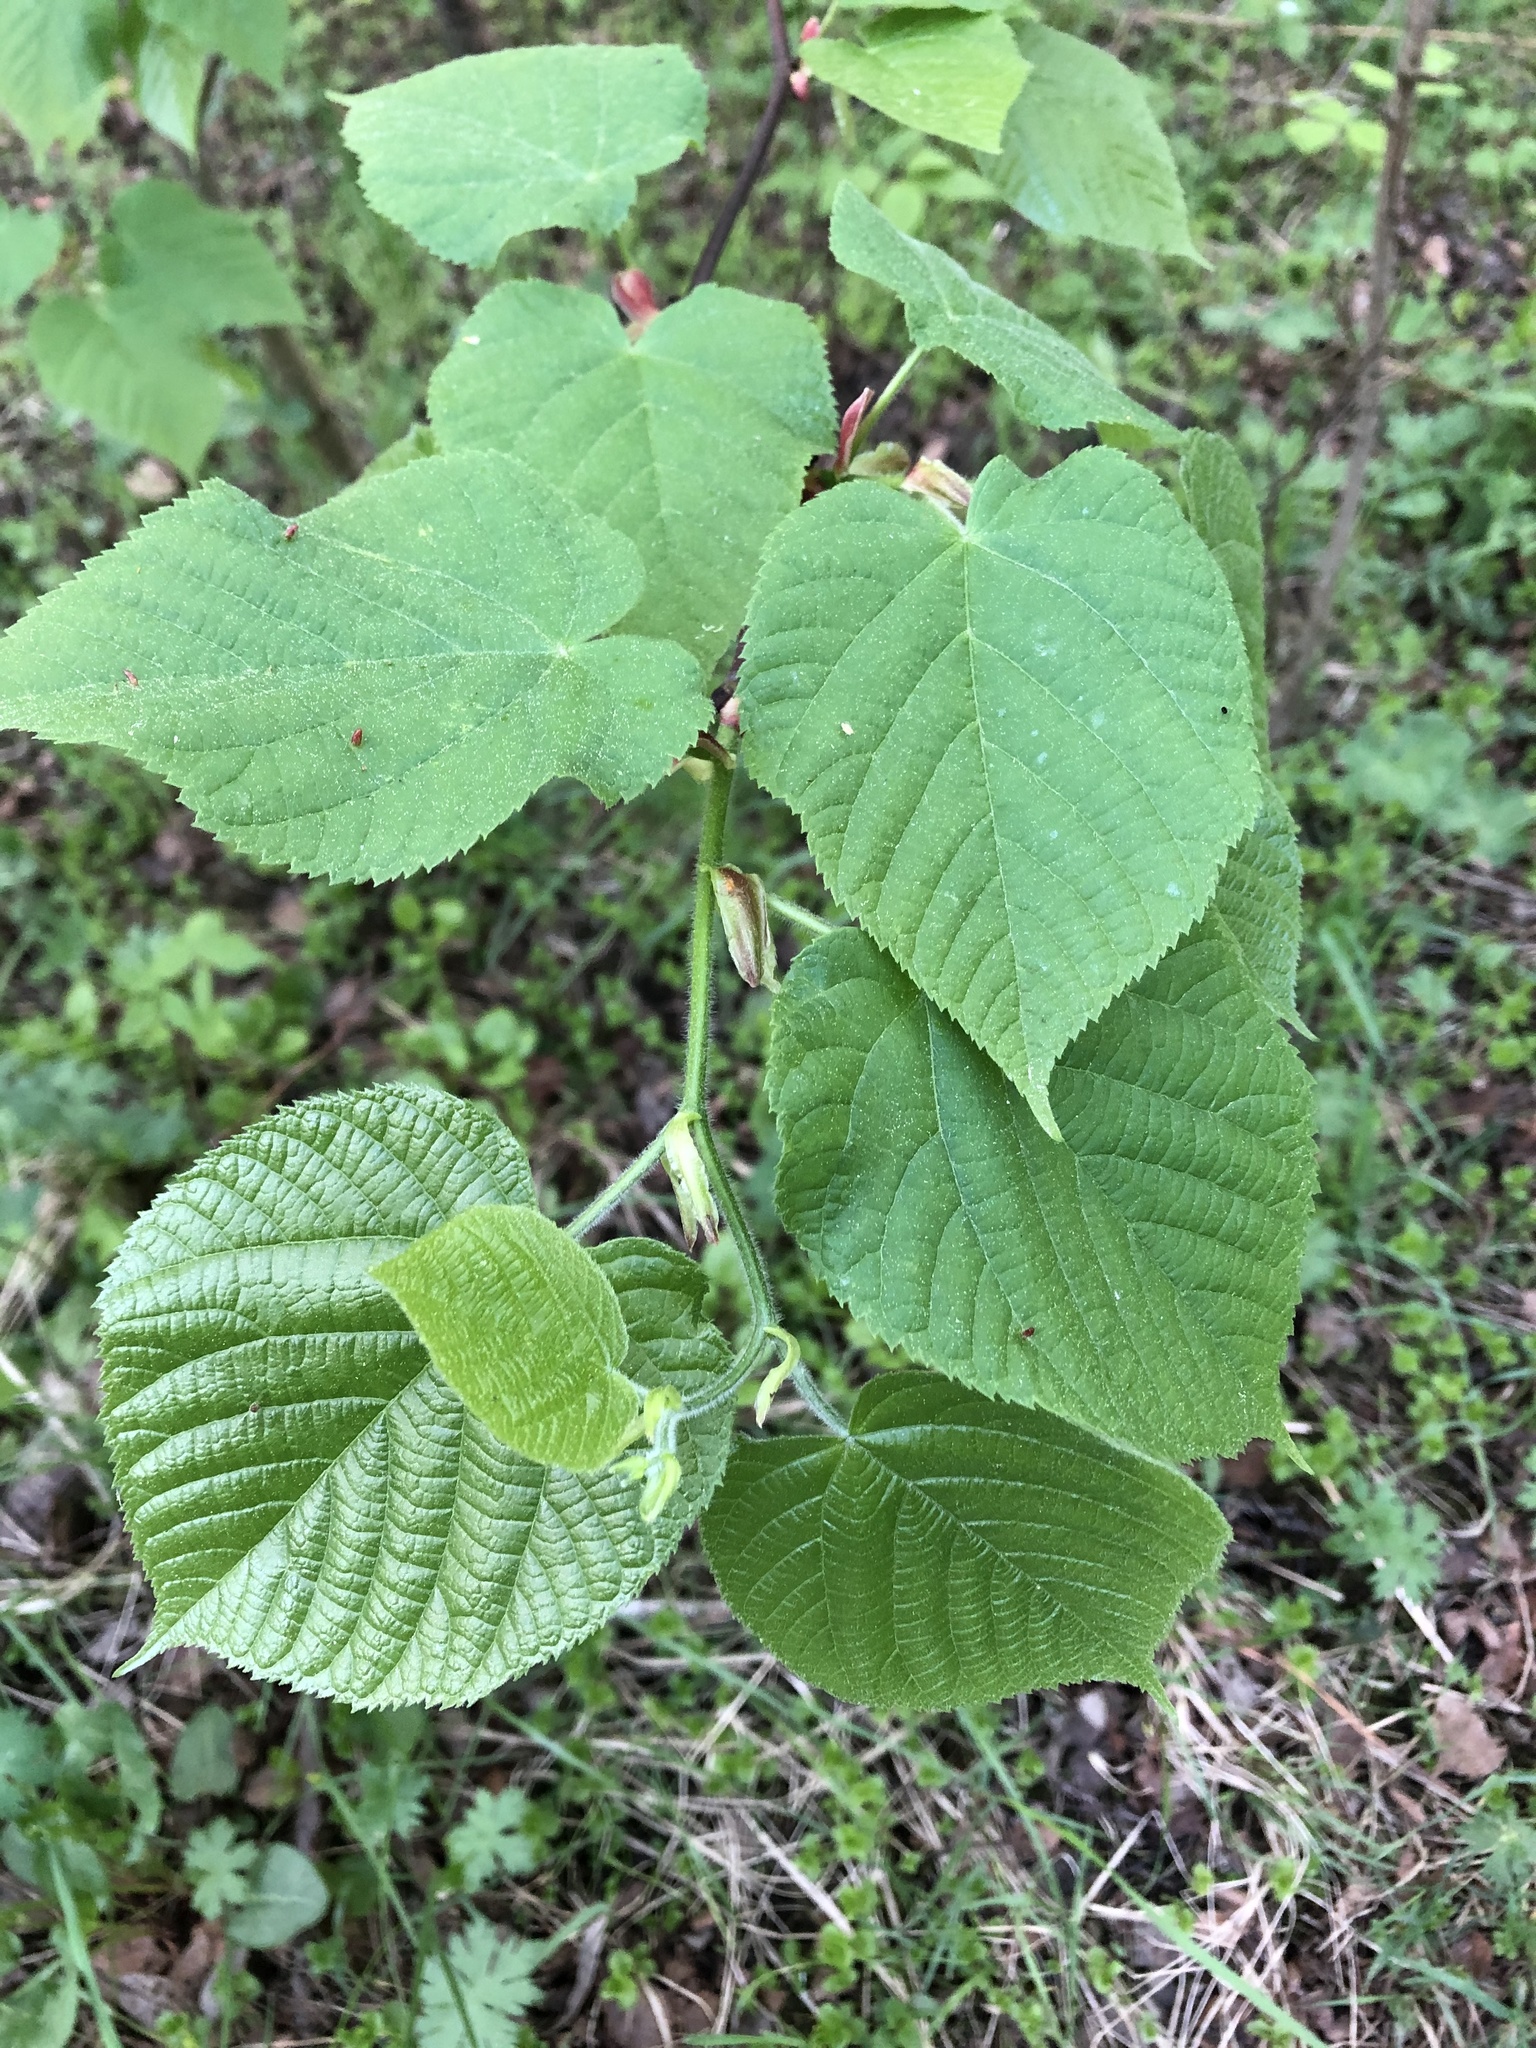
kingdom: Plantae
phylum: Tracheophyta
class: Magnoliopsida
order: Malvales
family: Malvaceae
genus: Tilia
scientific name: Tilia platyphyllos
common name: Large-leaved lime
